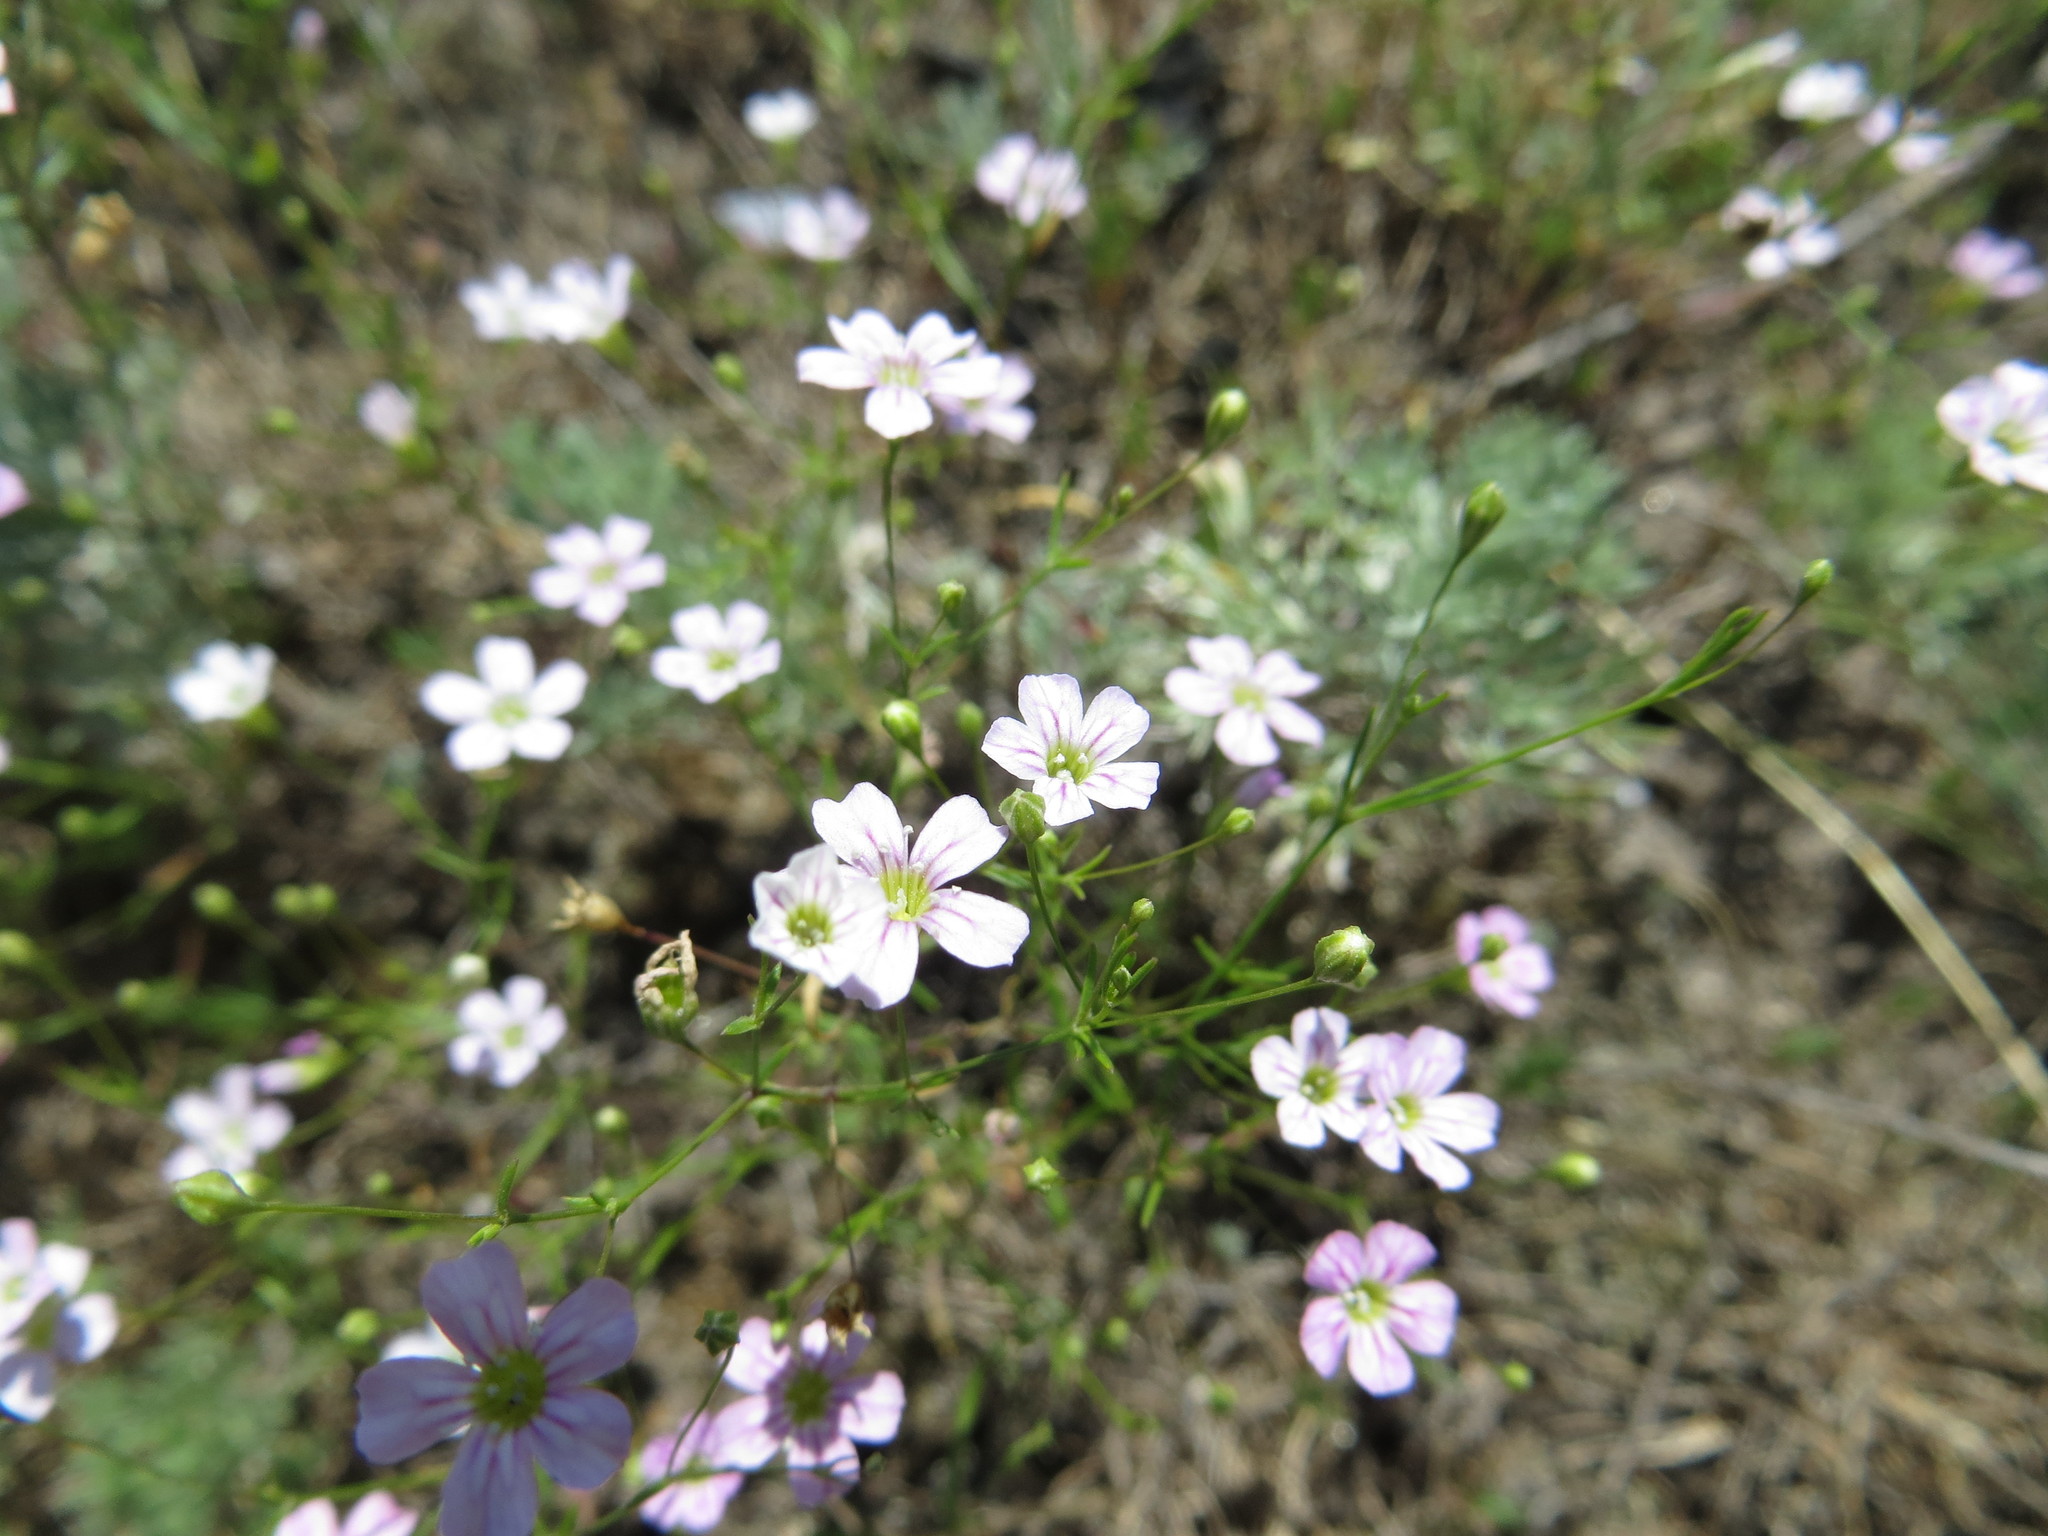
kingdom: Plantae
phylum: Tracheophyta
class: Magnoliopsida
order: Caryophyllales
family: Caryophyllaceae
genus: Psammophiliella
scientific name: Psammophiliella muralis
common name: Cushion baby's-breath
